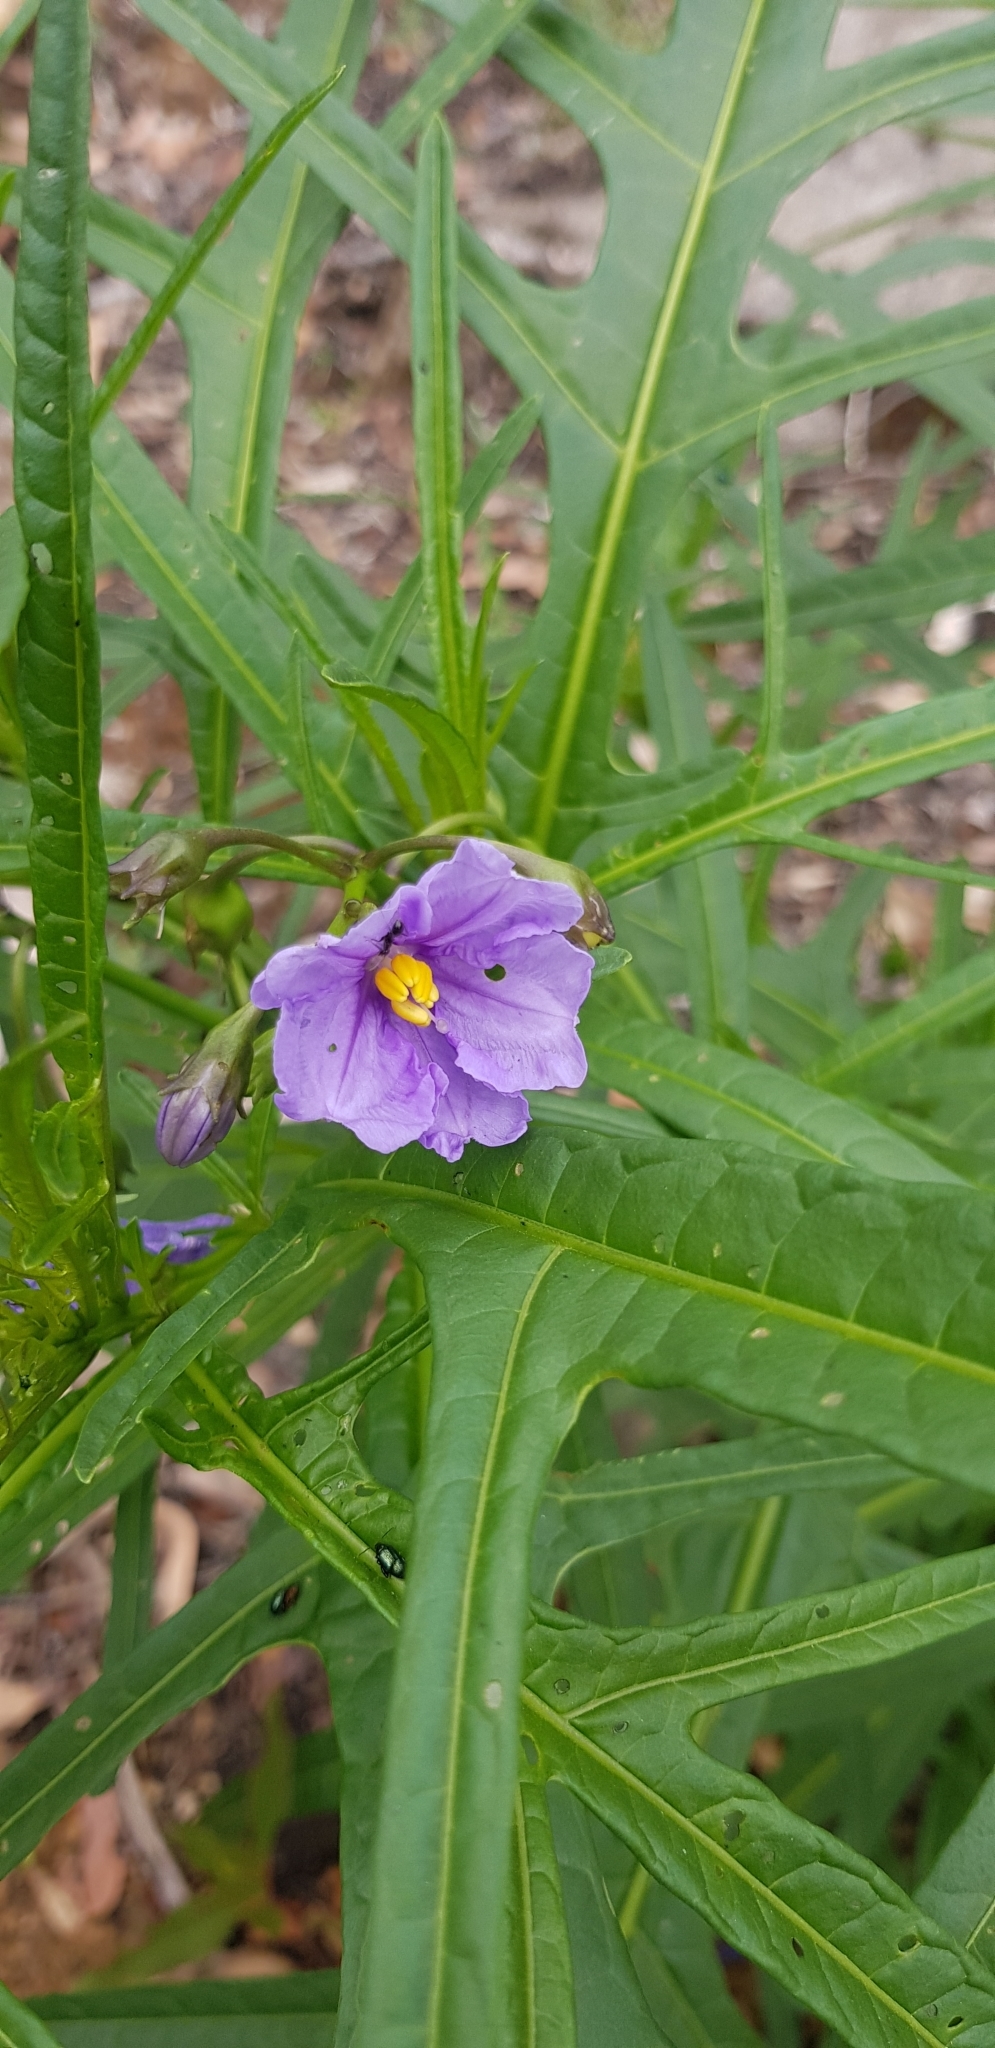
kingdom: Plantae
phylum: Tracheophyta
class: Magnoliopsida
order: Solanales
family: Solanaceae
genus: Solanum
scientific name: Solanum laciniatum
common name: Kangaroo-apple
